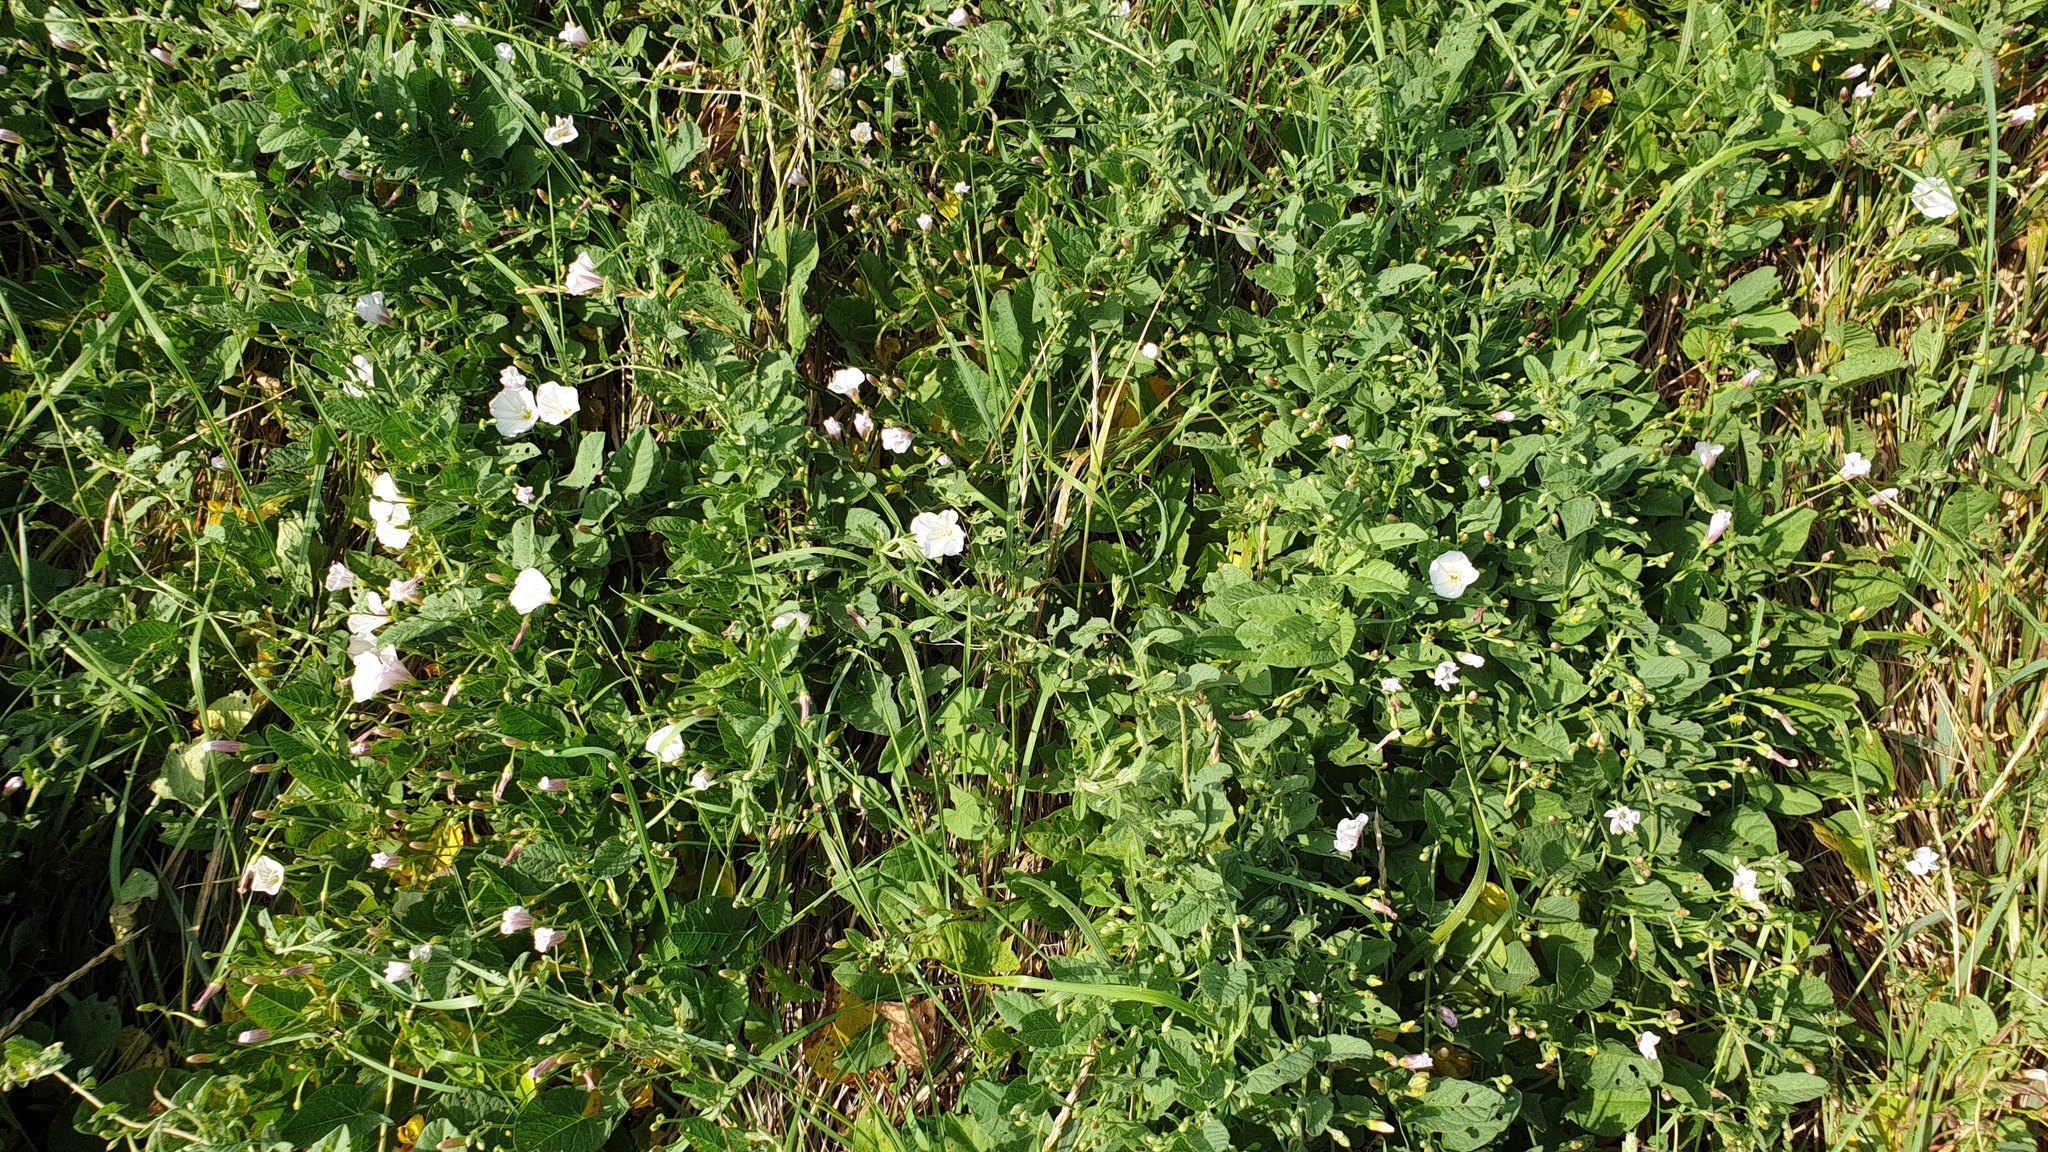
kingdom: Plantae
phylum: Tracheophyta
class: Magnoliopsida
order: Solanales
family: Convolvulaceae
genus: Convolvulus
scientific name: Convolvulus arvensis
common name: Field bindweed
